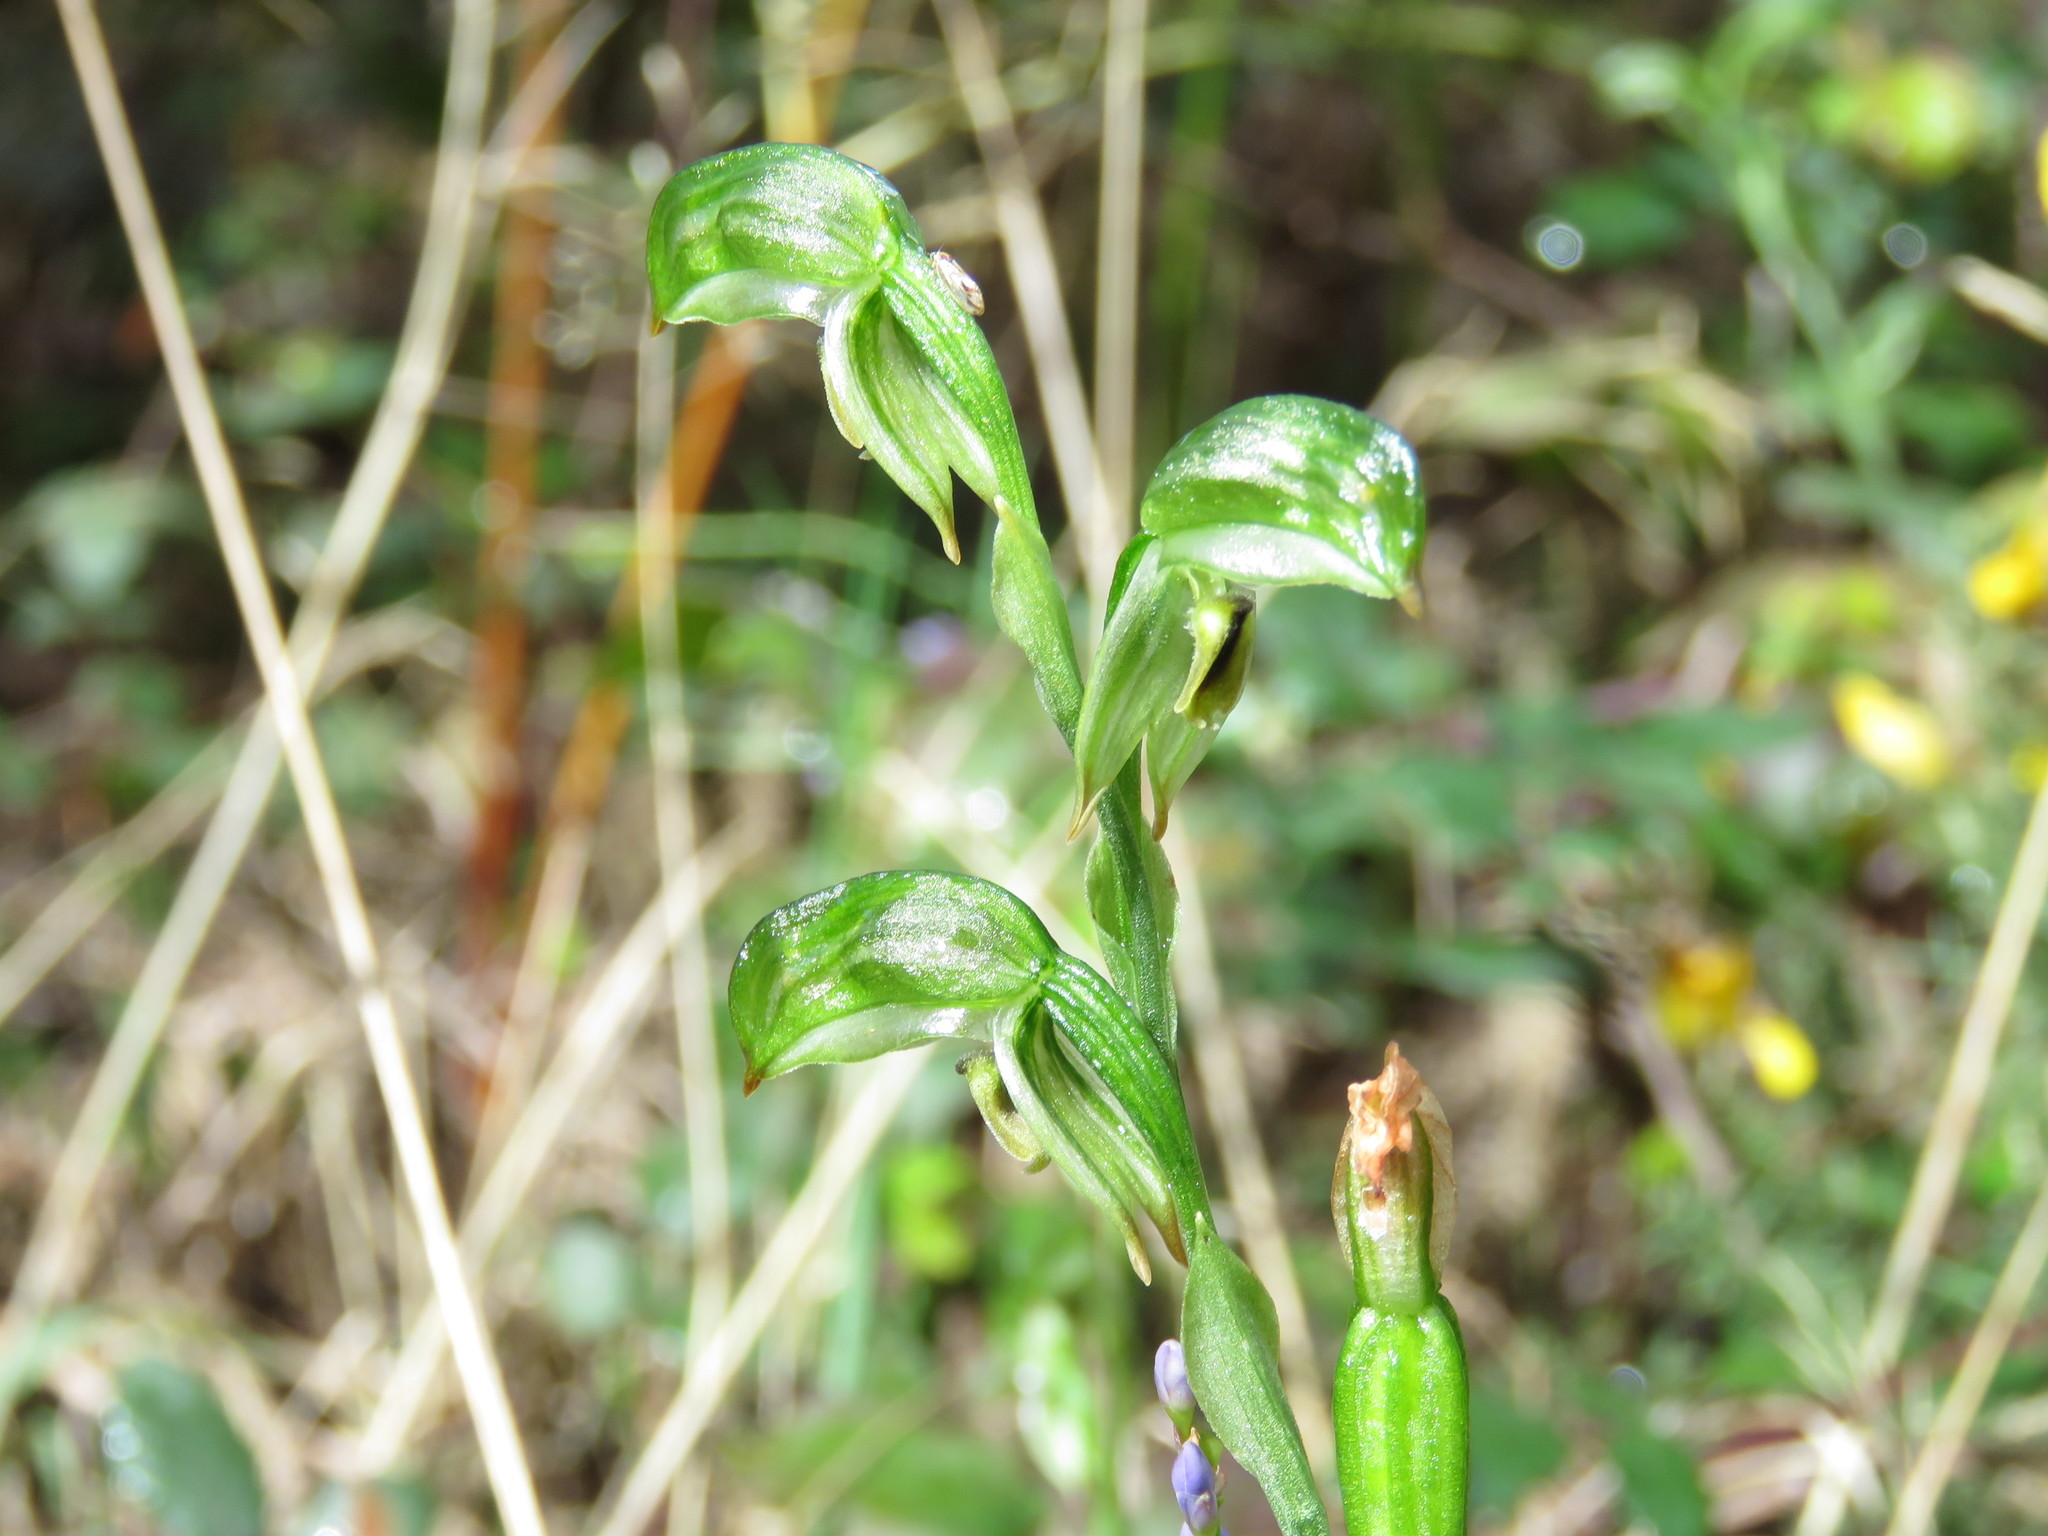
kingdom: Plantae
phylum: Tracheophyta
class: Liliopsida
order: Asparagales
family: Orchidaceae
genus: Pterostylis
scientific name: Pterostylis melagramma
